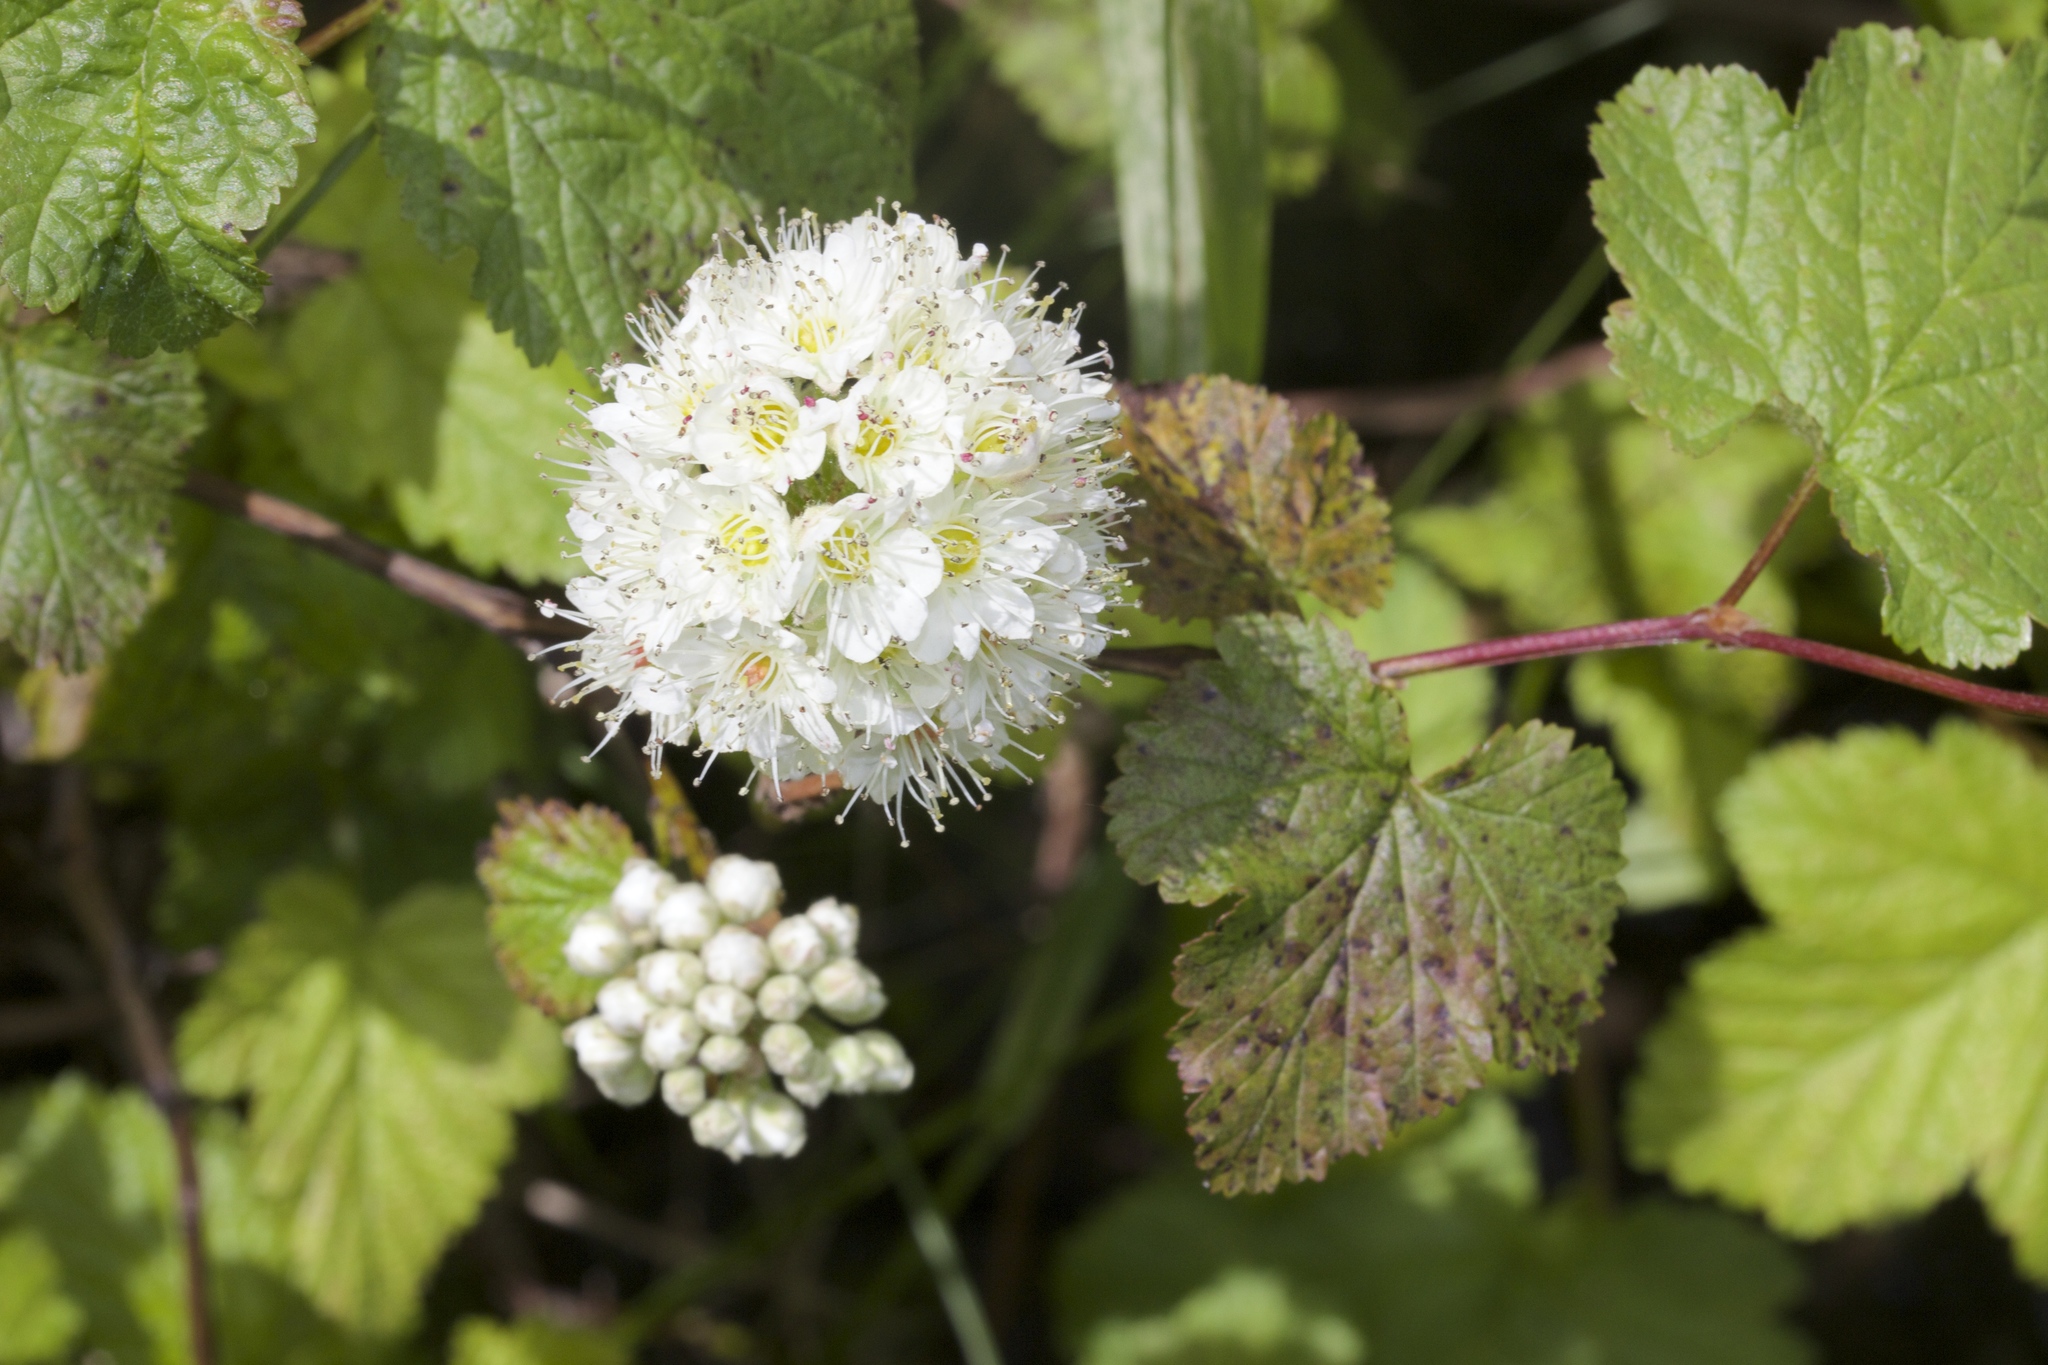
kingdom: Plantae
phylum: Tracheophyta
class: Magnoliopsida
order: Rosales
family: Rosaceae
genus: Physocarpus
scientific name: Physocarpus capitatus
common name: Pacific ninebark
